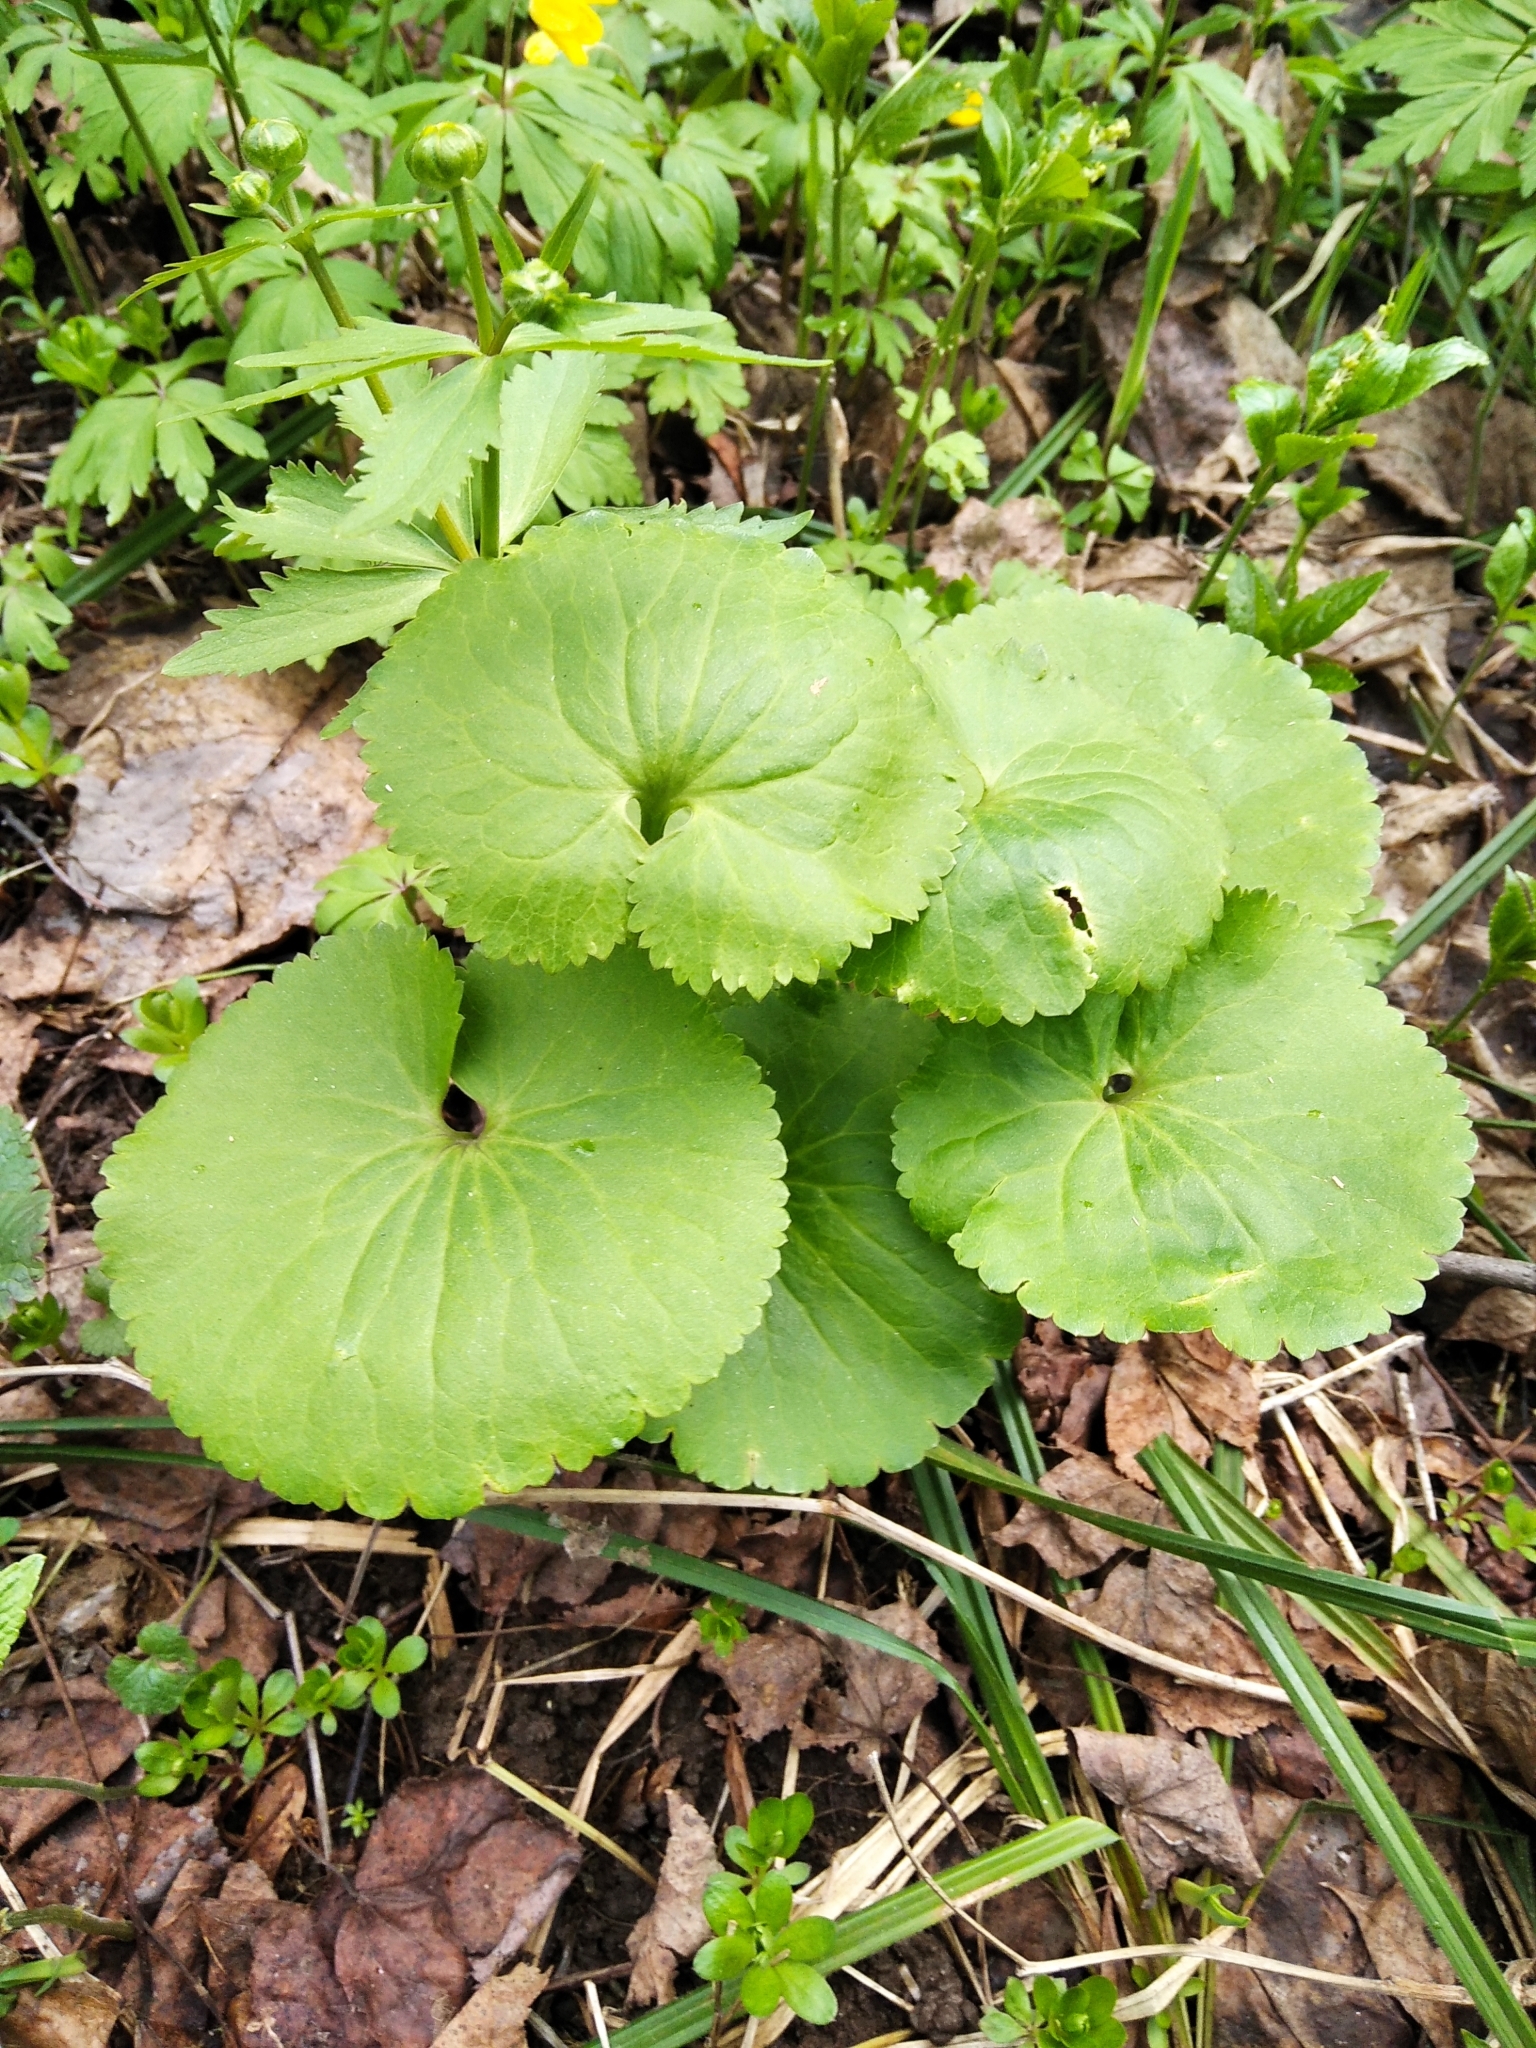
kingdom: Plantae
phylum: Tracheophyta
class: Magnoliopsida
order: Ranunculales
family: Ranunculaceae
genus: Ranunculus
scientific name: Ranunculus cassubicus
